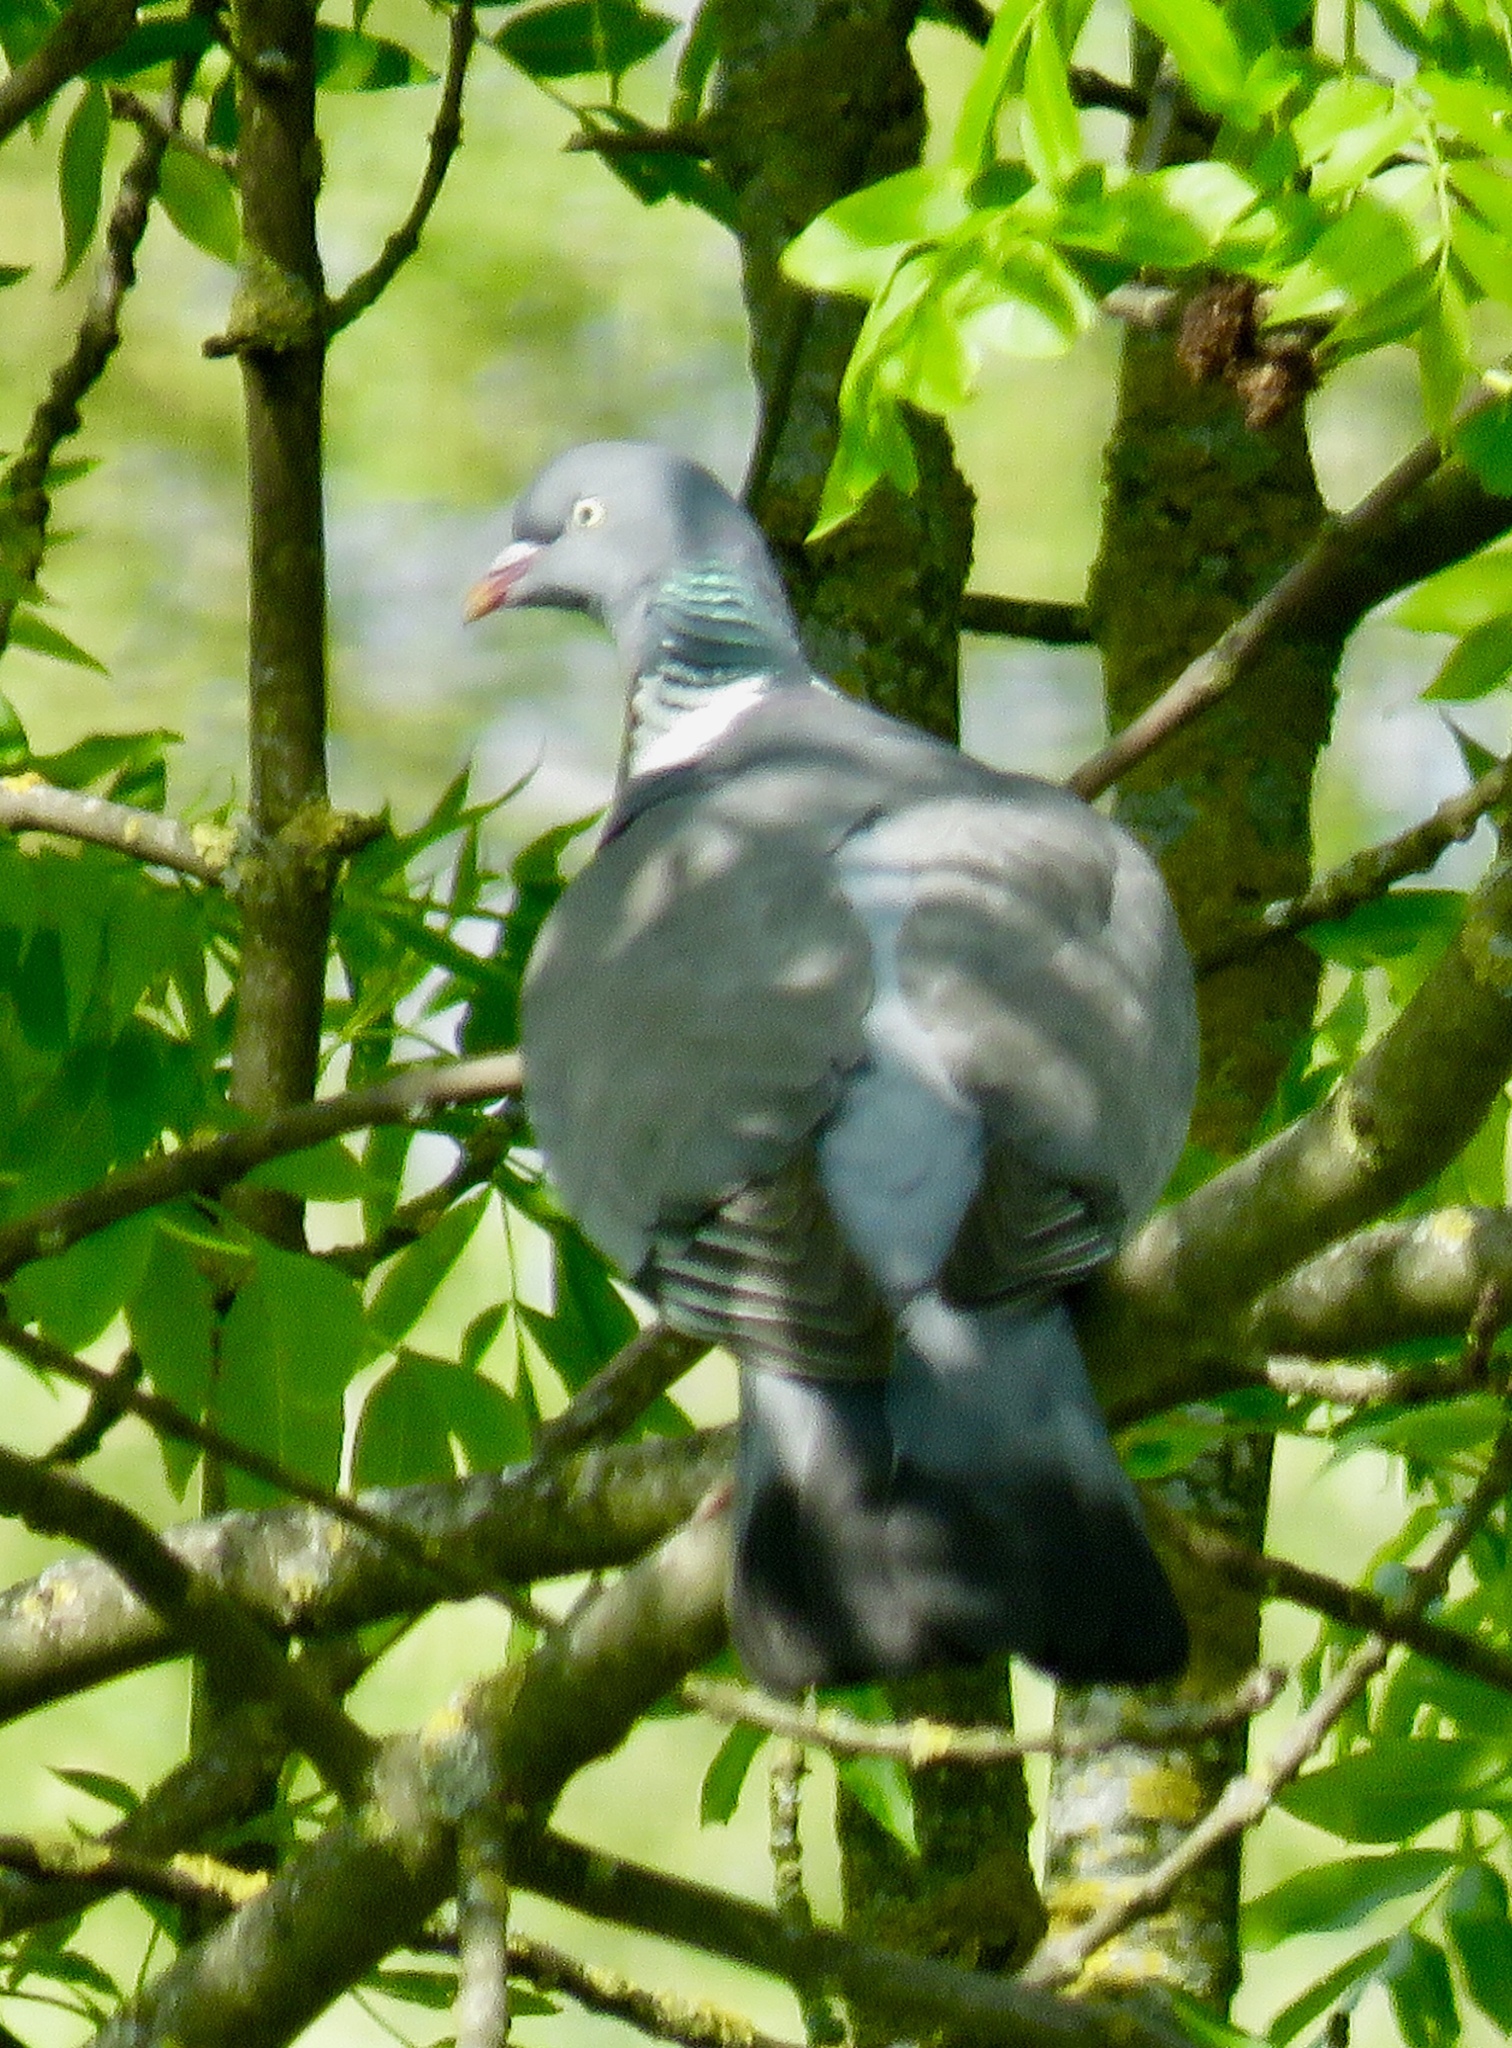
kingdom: Animalia
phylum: Chordata
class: Aves
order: Columbiformes
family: Columbidae
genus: Columba
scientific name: Columba palumbus
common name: Common wood pigeon
